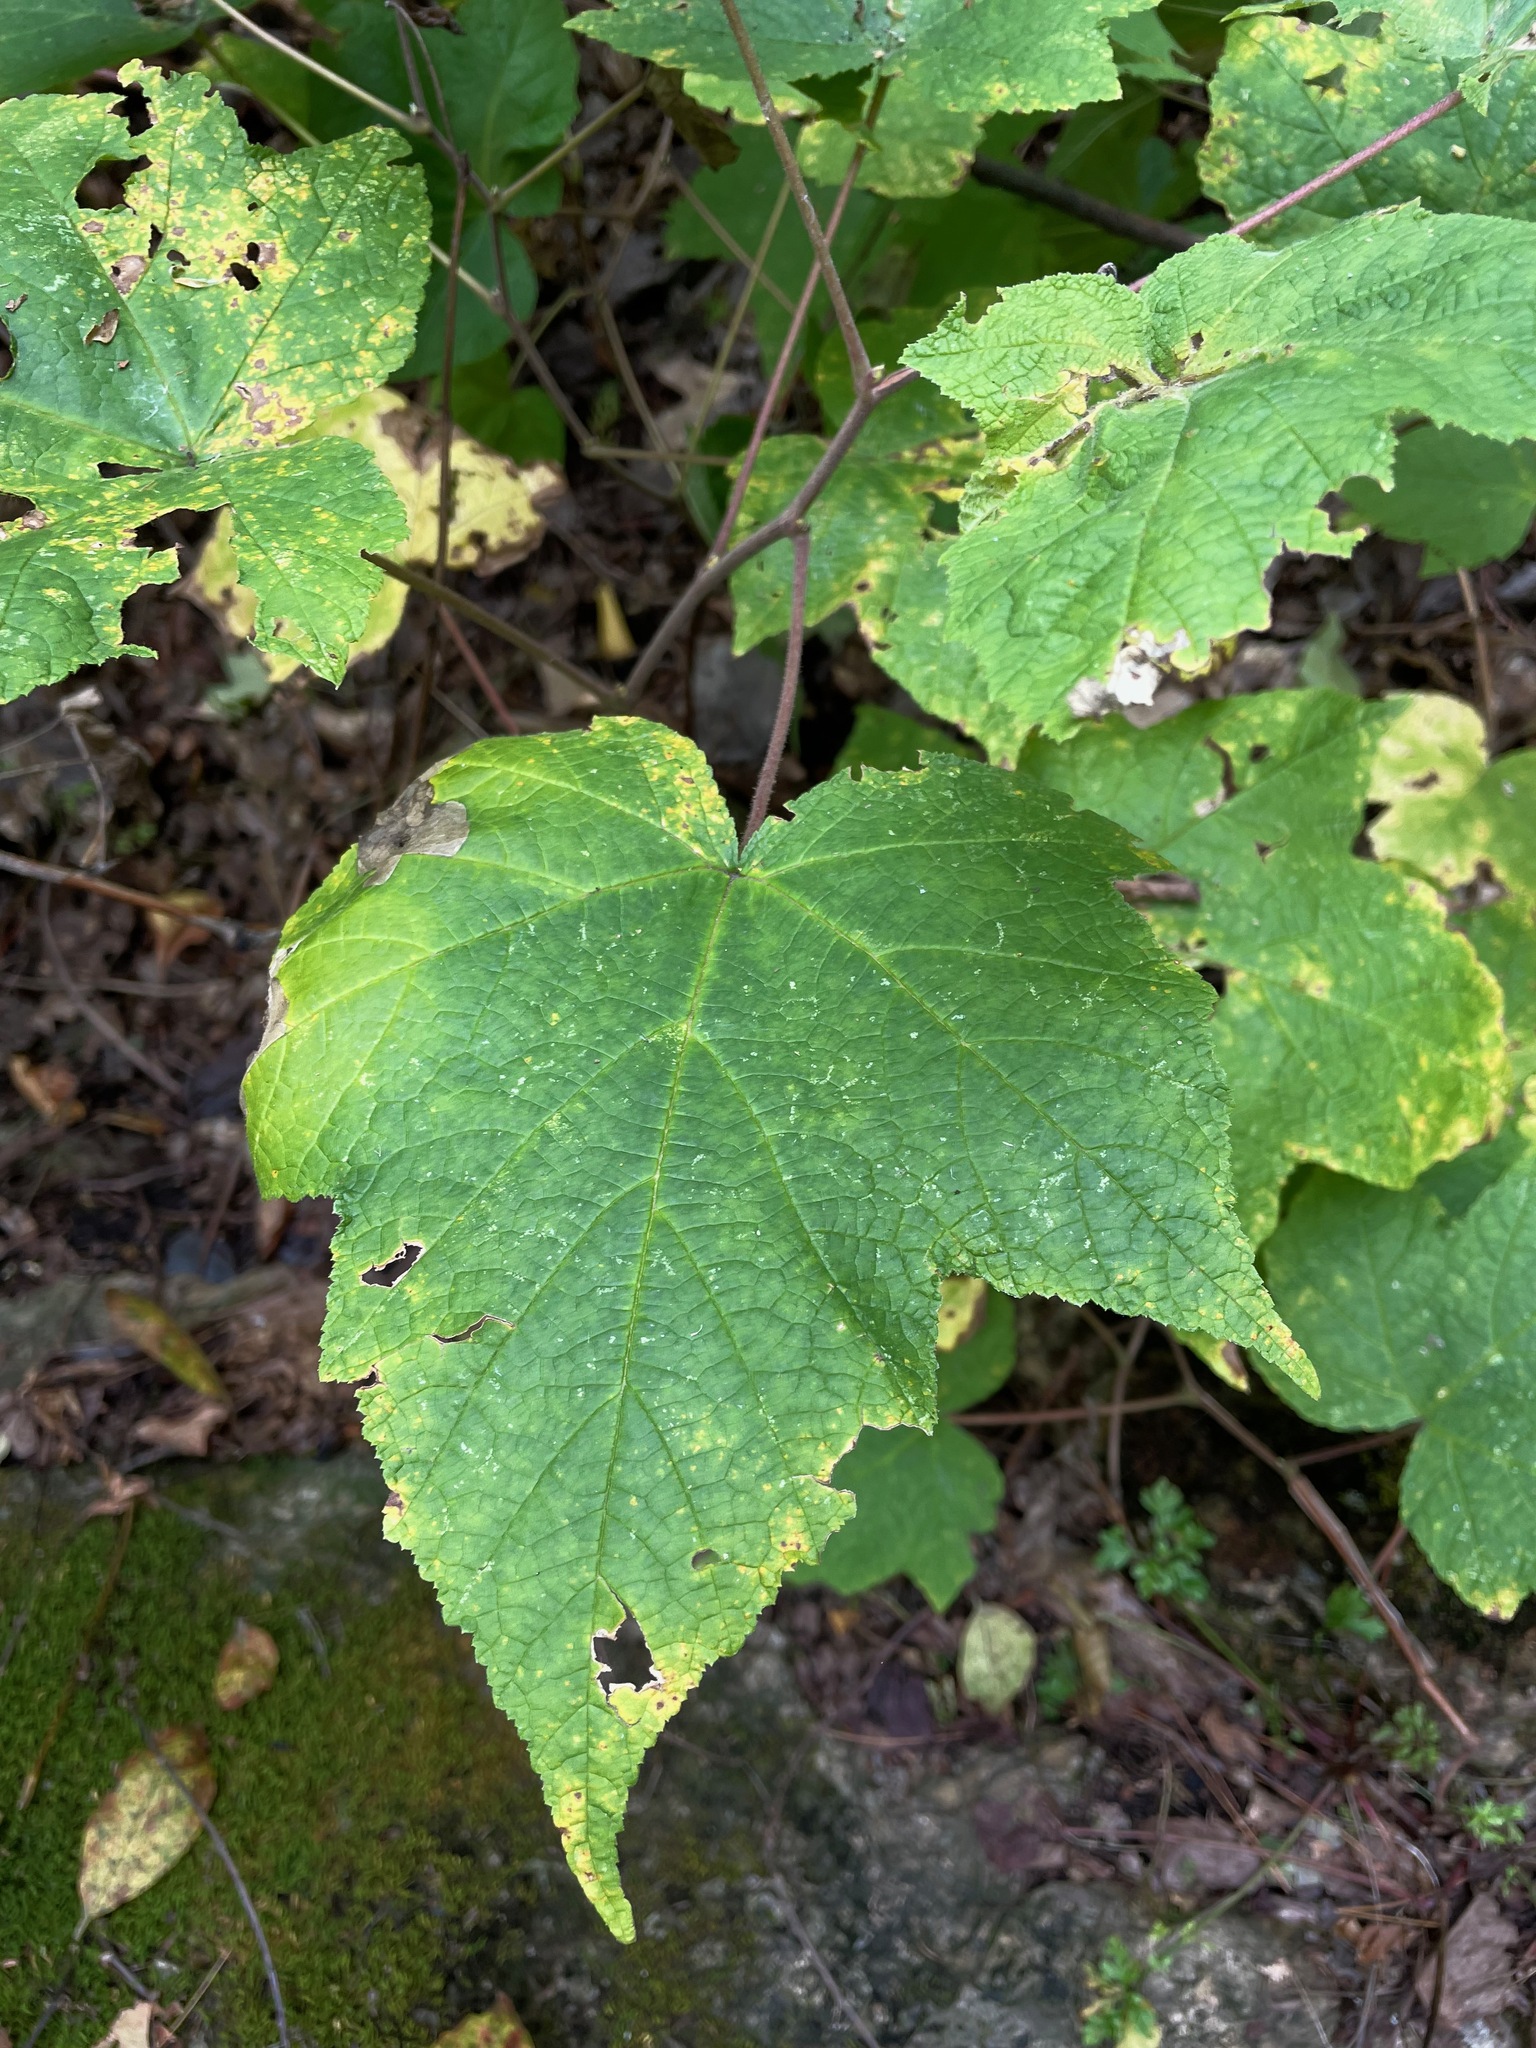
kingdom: Plantae
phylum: Tracheophyta
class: Magnoliopsida
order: Rosales
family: Rosaceae
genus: Rubus
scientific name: Rubus odoratus
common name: Purple-flowered raspberry
